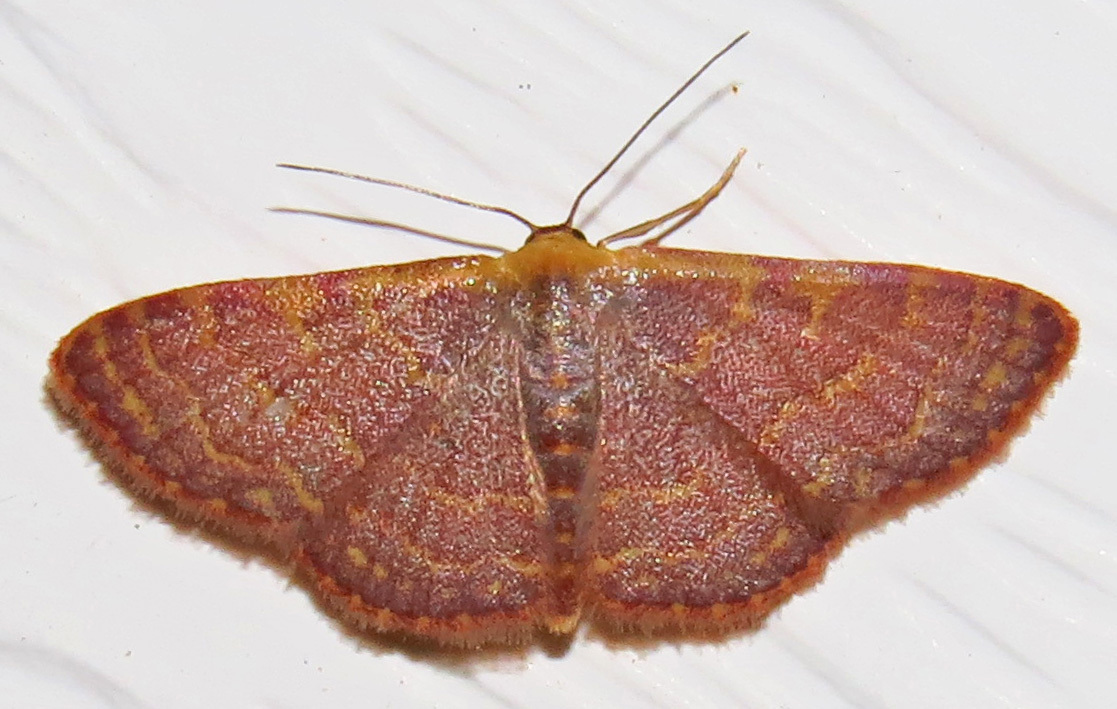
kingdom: Animalia
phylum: Arthropoda
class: Insecta
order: Lepidoptera
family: Geometridae
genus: Leptostales
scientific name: Leptostales pannaria
